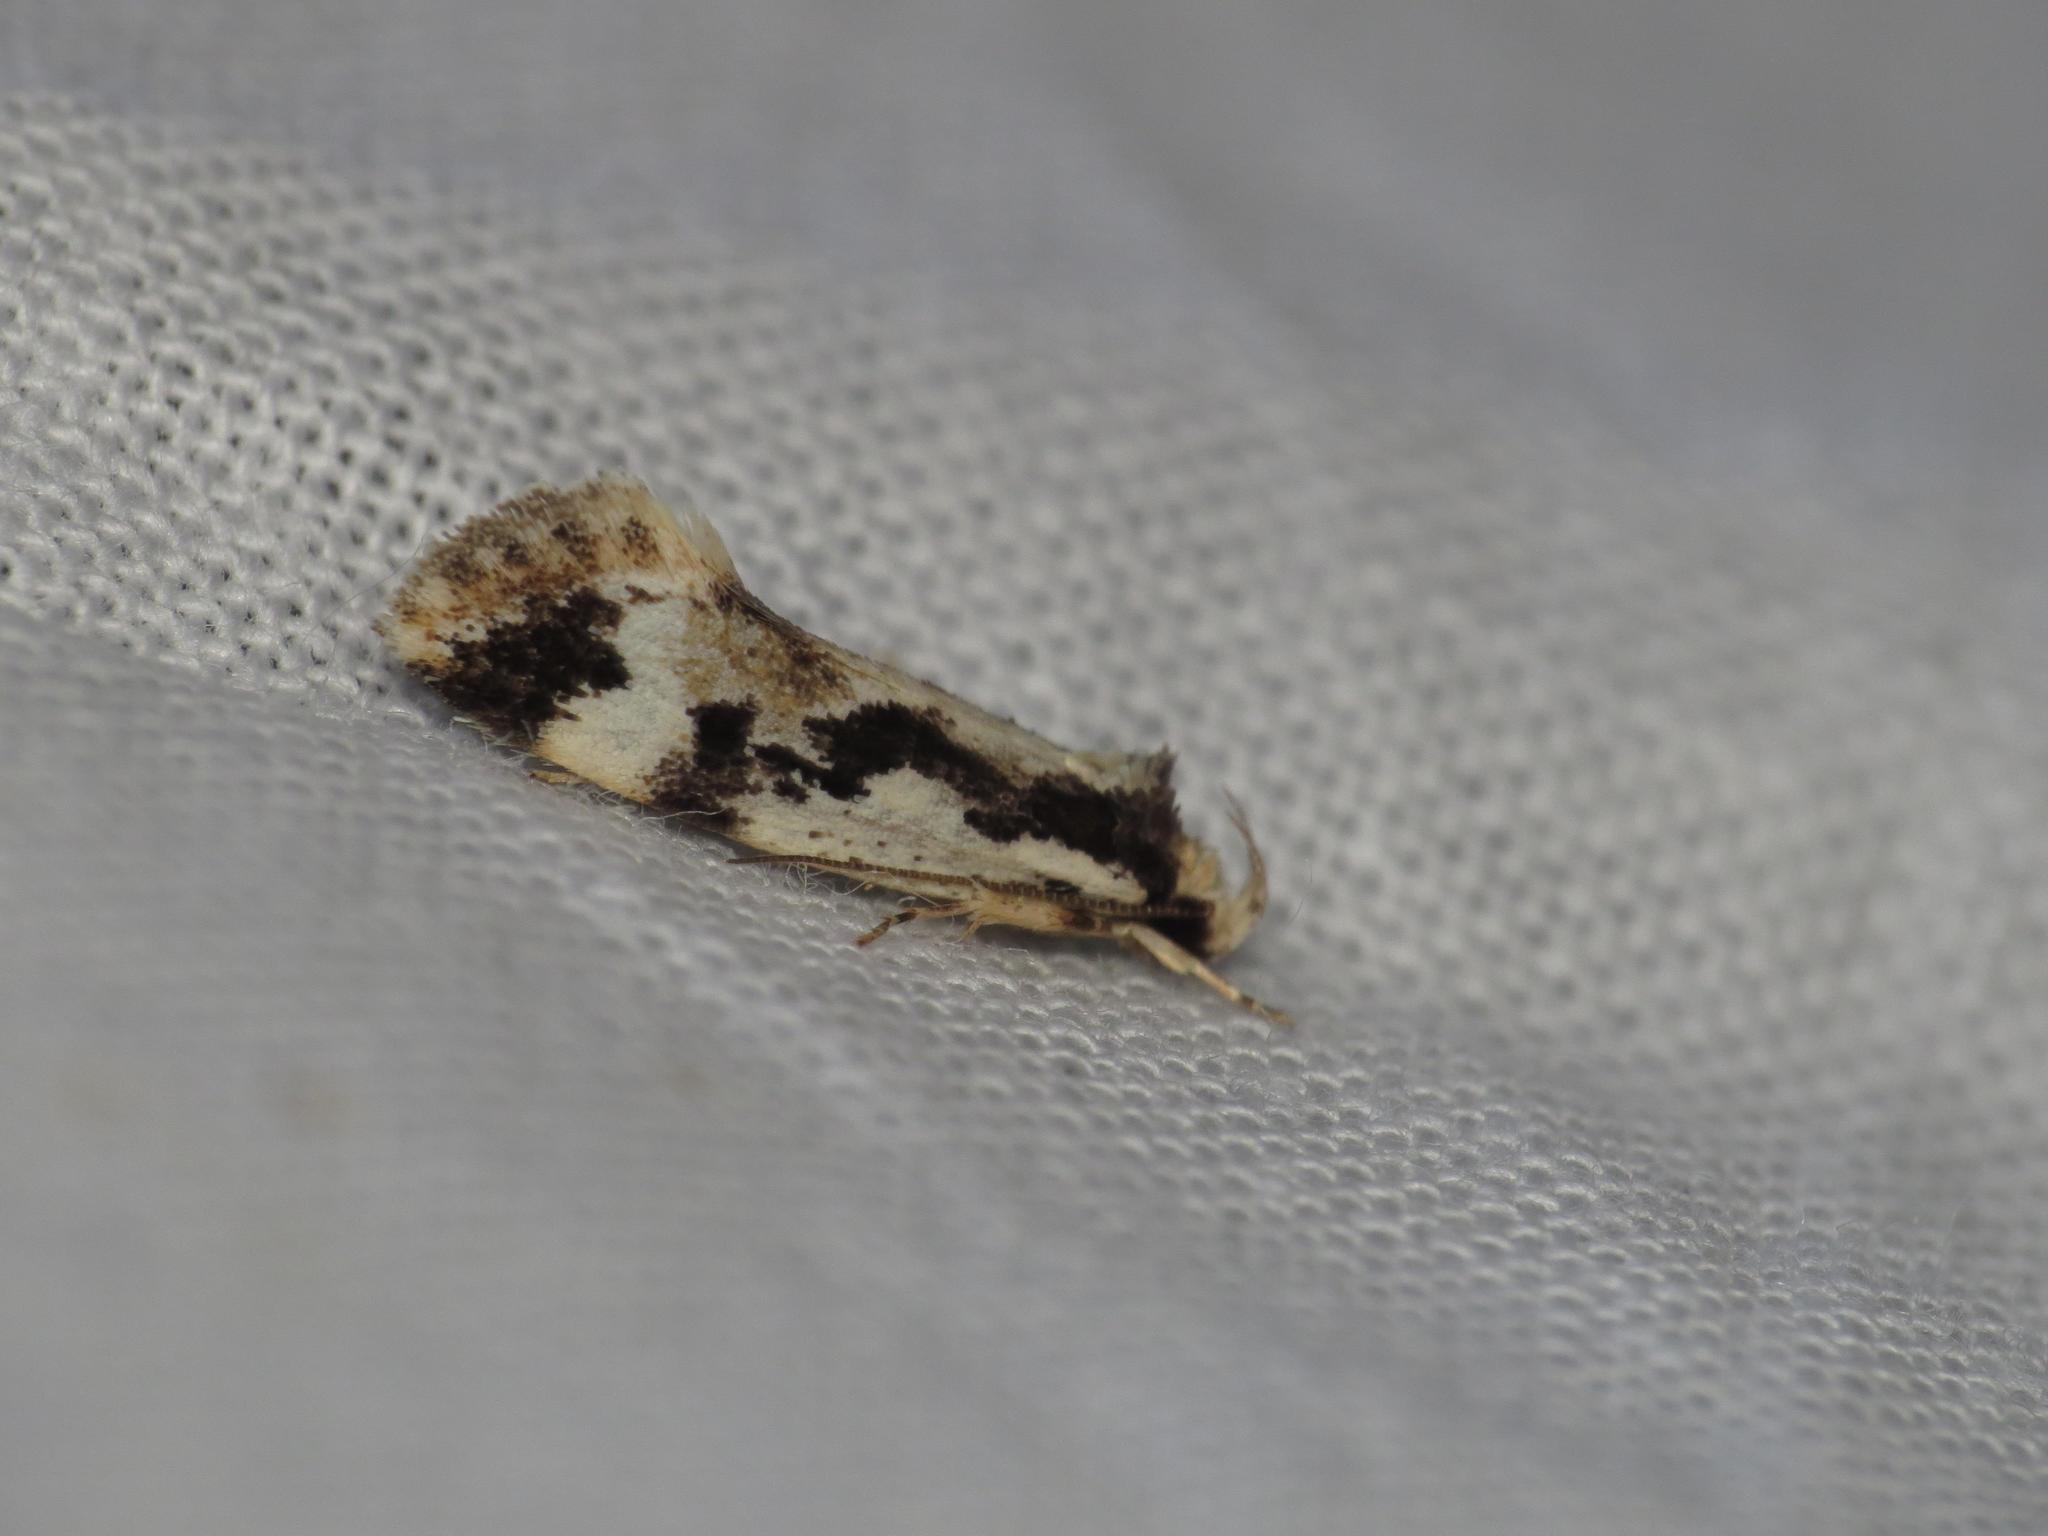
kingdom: Animalia
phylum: Arthropoda
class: Insecta
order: Lepidoptera
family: Oecophoridae
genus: Machetis
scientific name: Machetis versatrix
